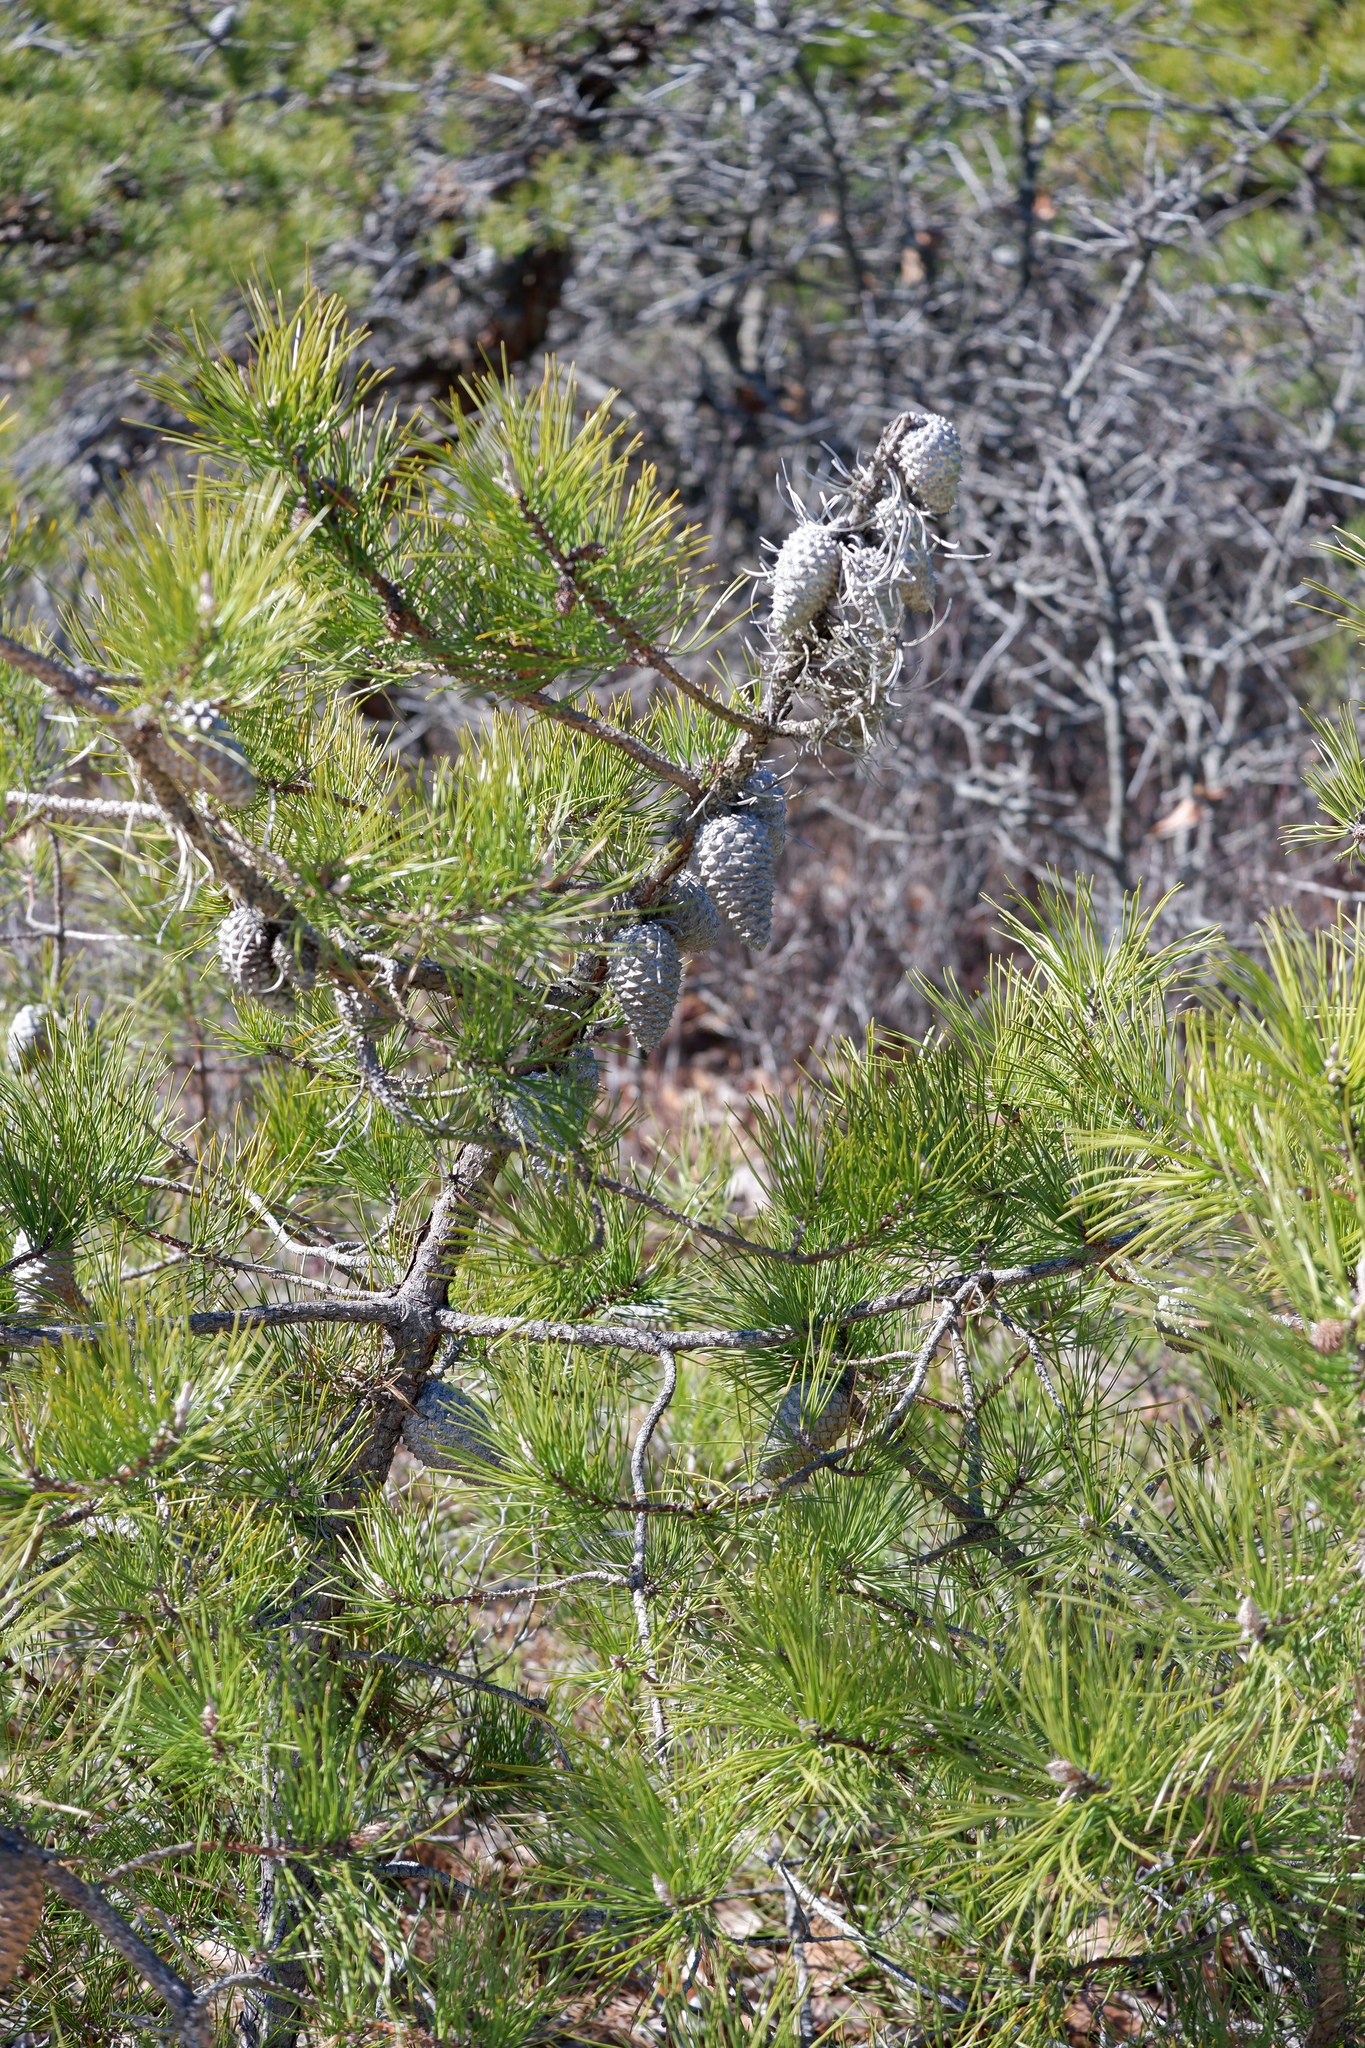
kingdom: Plantae
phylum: Tracheophyta
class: Pinopsida
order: Pinales
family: Pinaceae
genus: Pinus
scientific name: Pinus rigida
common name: Pitch pine
